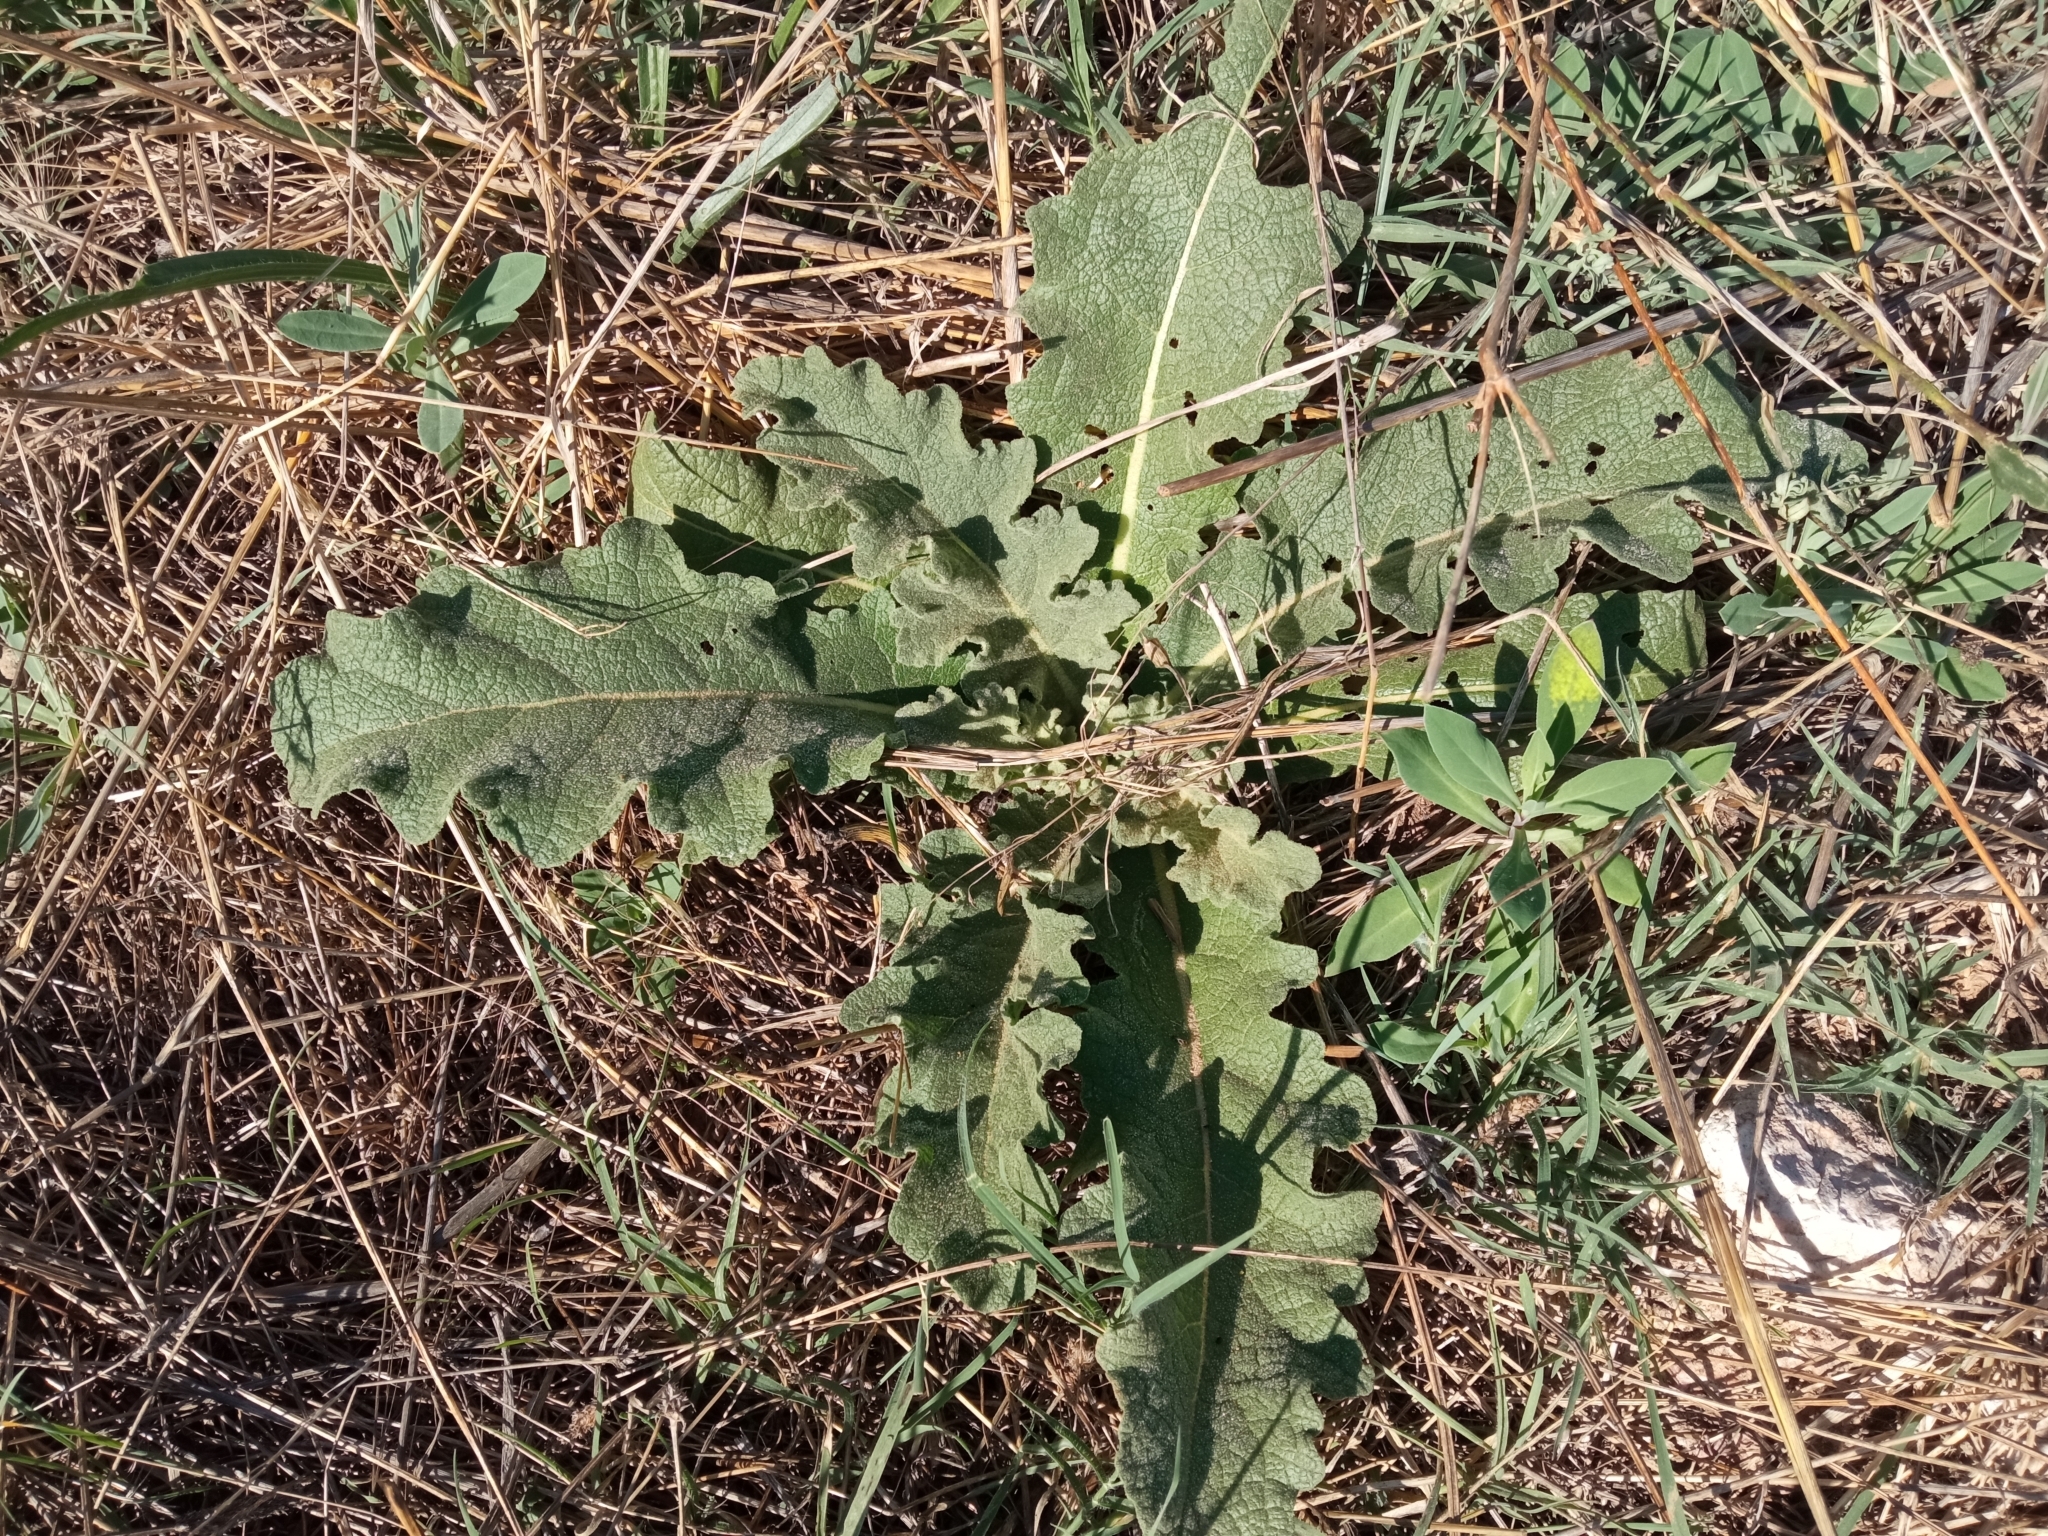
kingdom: Plantae
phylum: Tracheophyta
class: Magnoliopsida
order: Lamiales
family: Scrophulariaceae
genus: Verbascum
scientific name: Verbascum sinuatum
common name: Wavyleaf mullein
